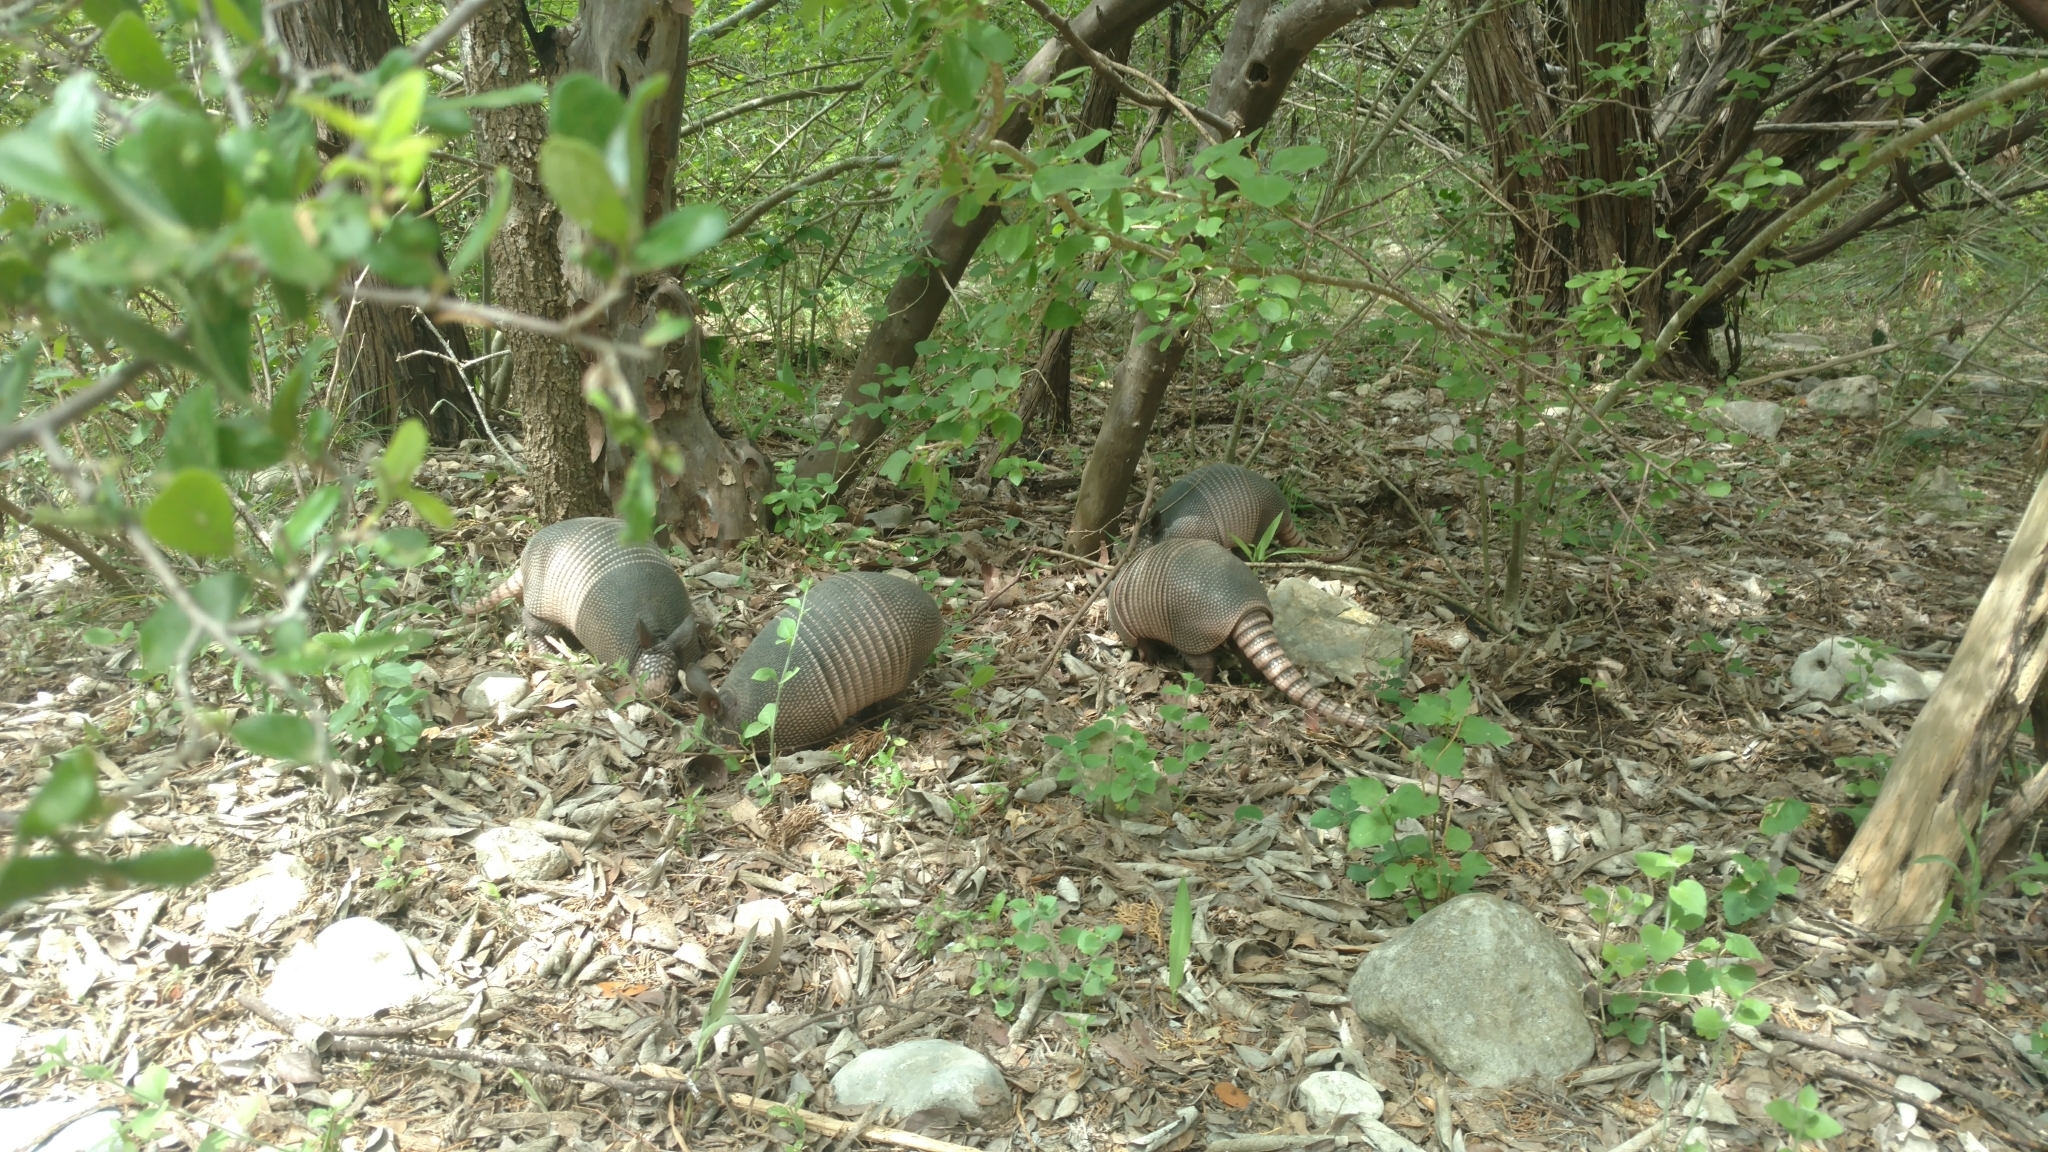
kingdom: Animalia
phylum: Chordata
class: Mammalia
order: Cingulata
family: Dasypodidae
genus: Dasypus
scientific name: Dasypus novemcinctus
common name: Nine-banded armadillo
